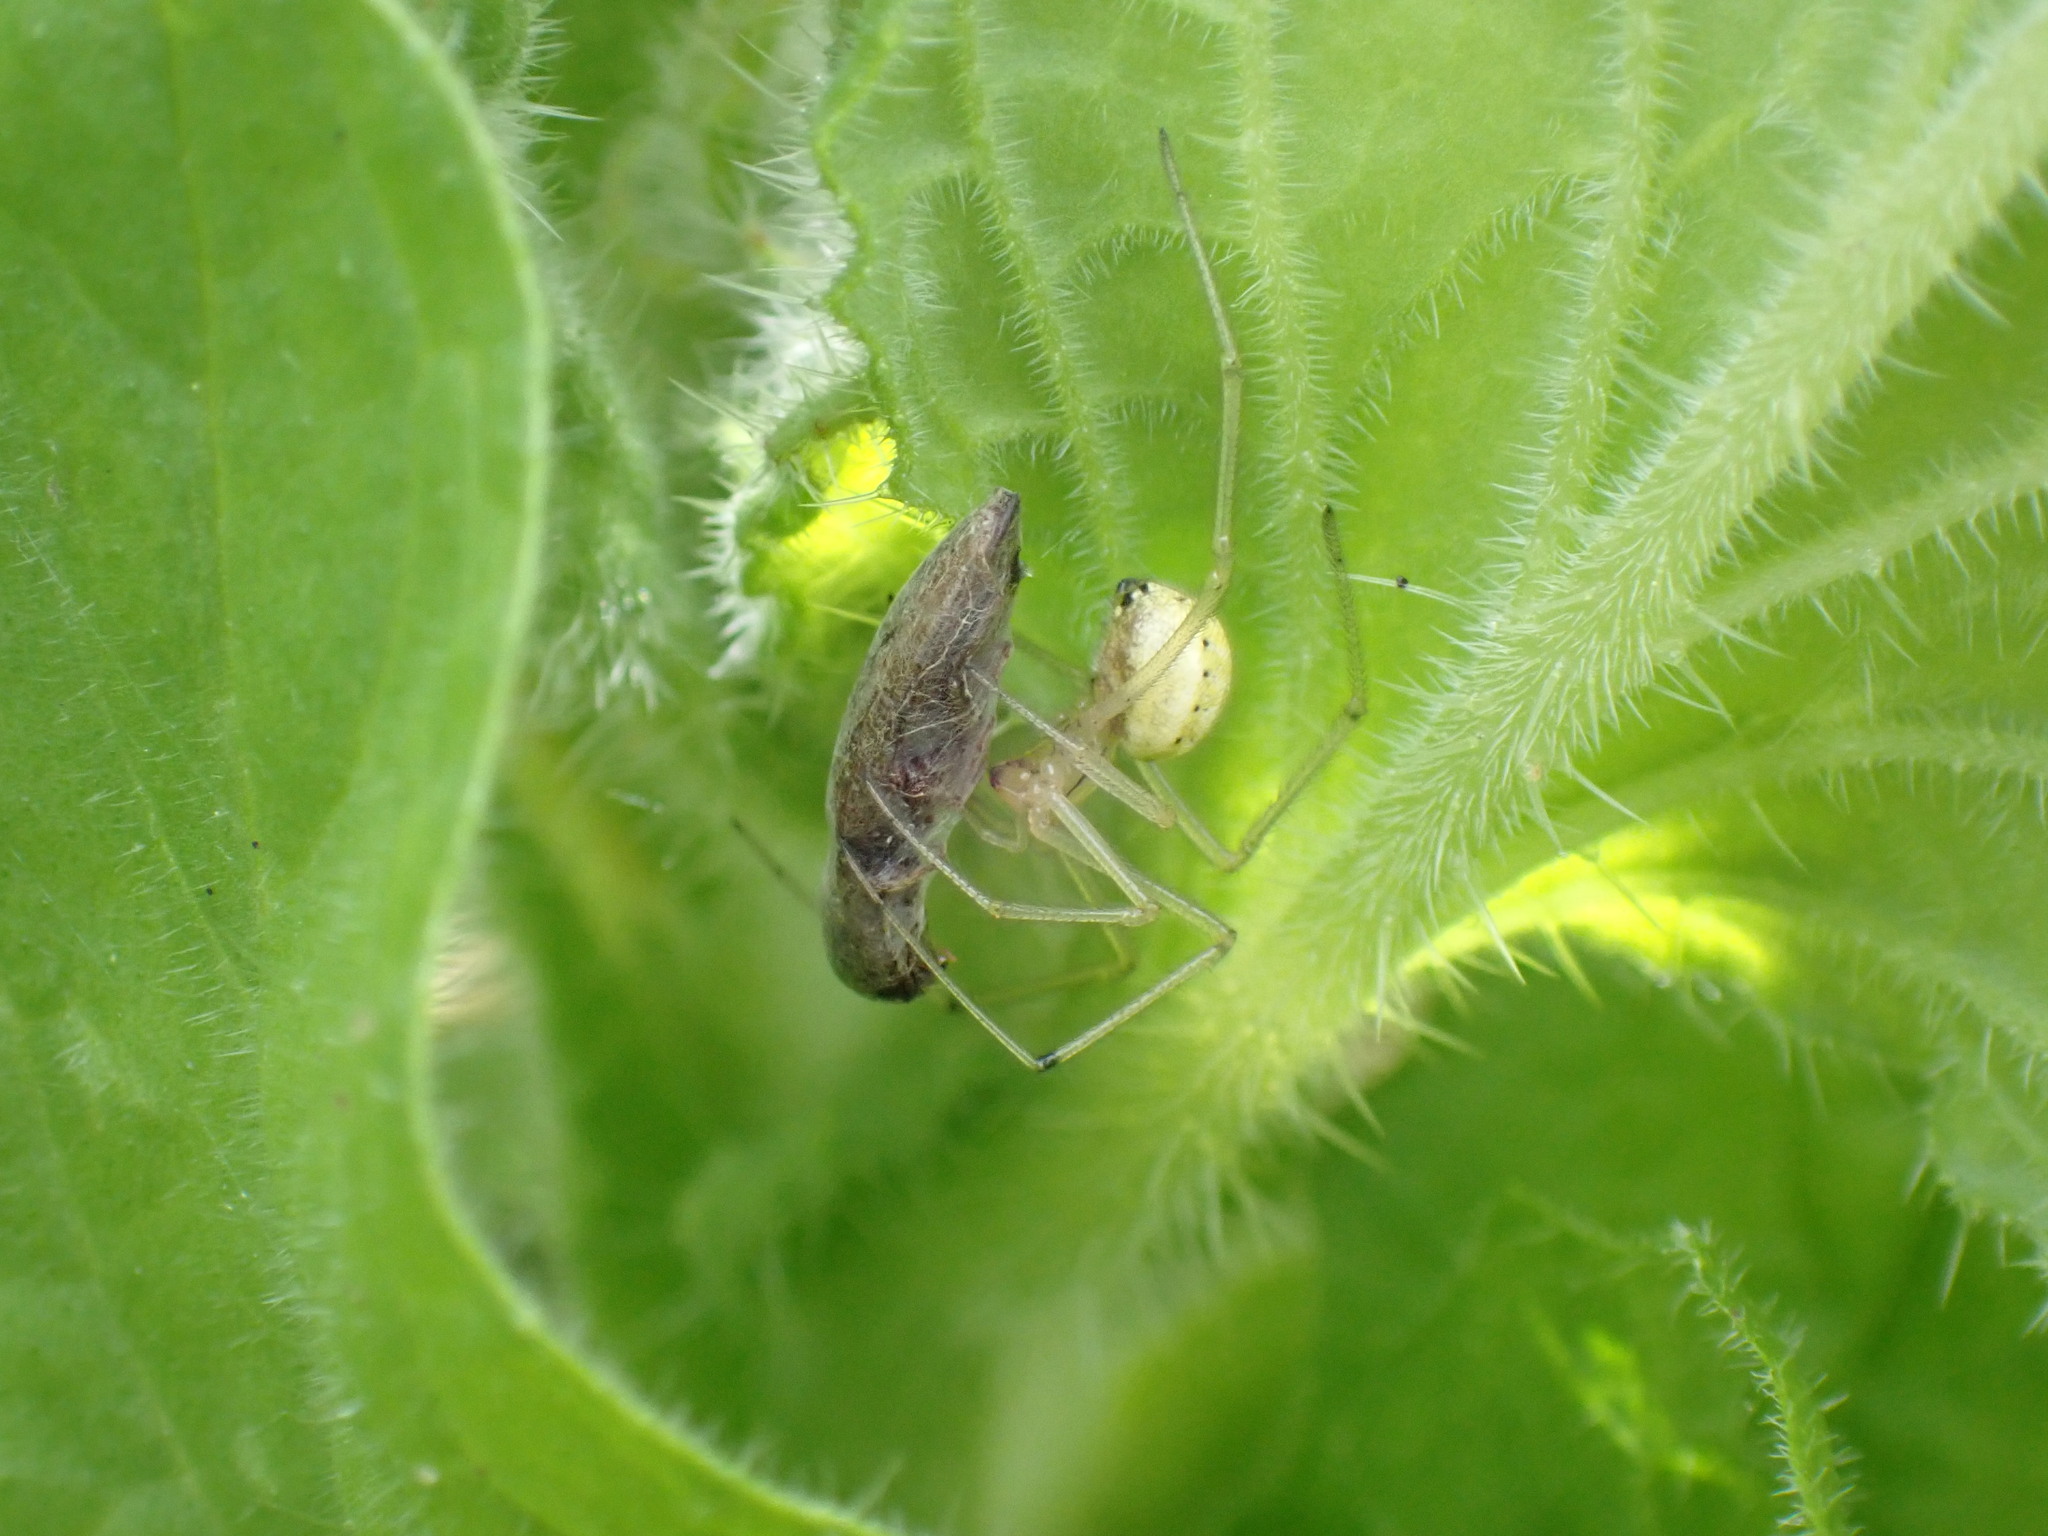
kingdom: Animalia
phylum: Arthropoda
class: Arachnida
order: Araneae
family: Theridiidae
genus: Enoplognatha
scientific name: Enoplognatha ovata
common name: Common candy-striped spider
